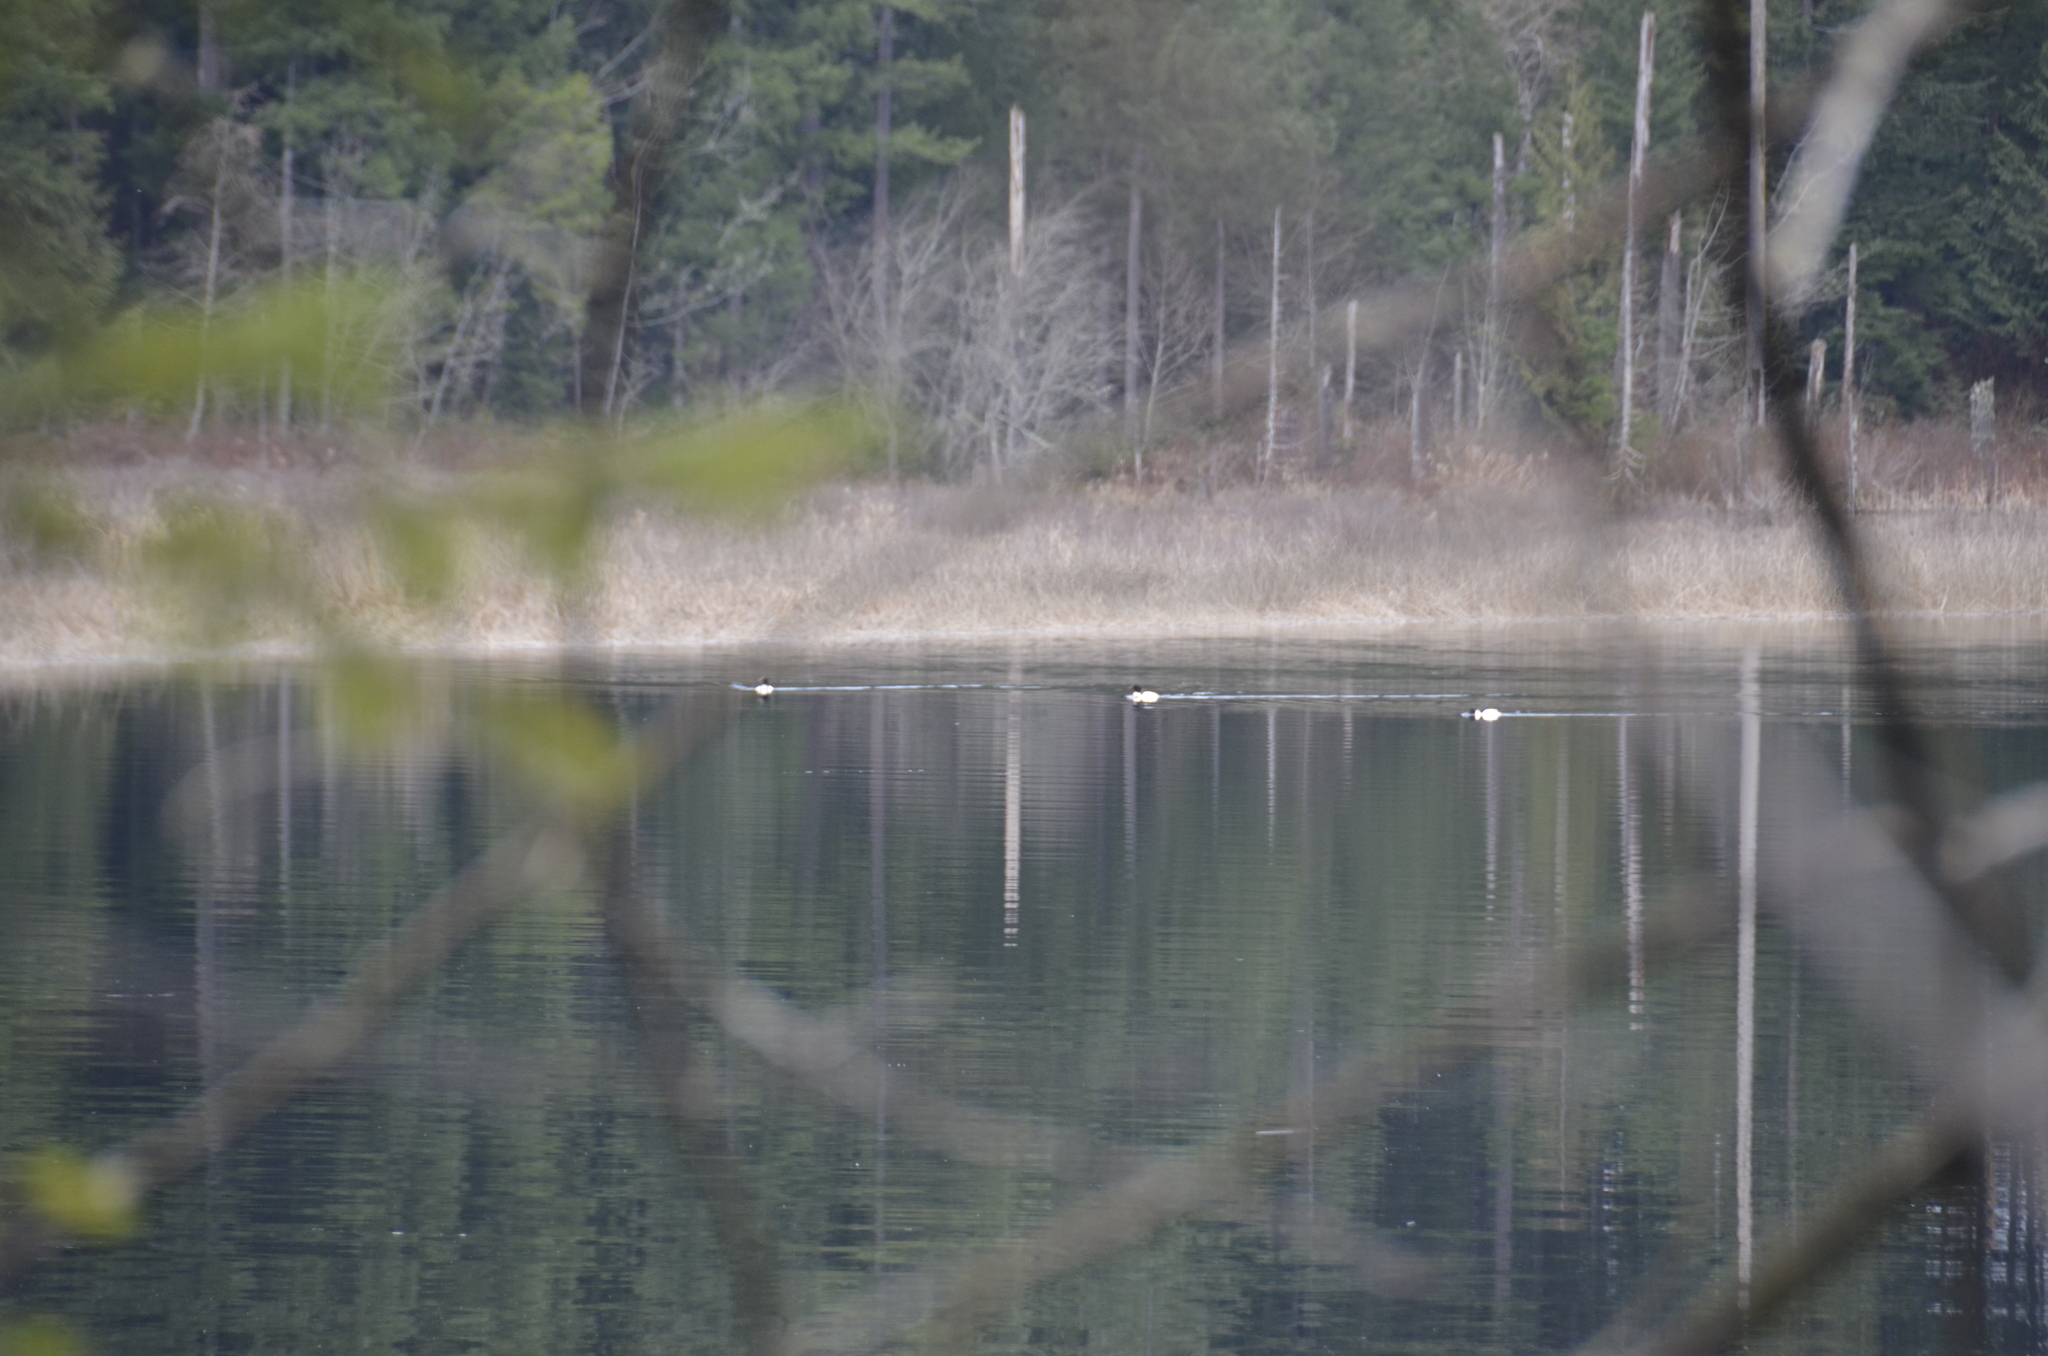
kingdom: Animalia
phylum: Chordata
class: Aves
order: Anseriformes
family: Anatidae
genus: Mergus
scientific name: Mergus merganser
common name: Common merganser
